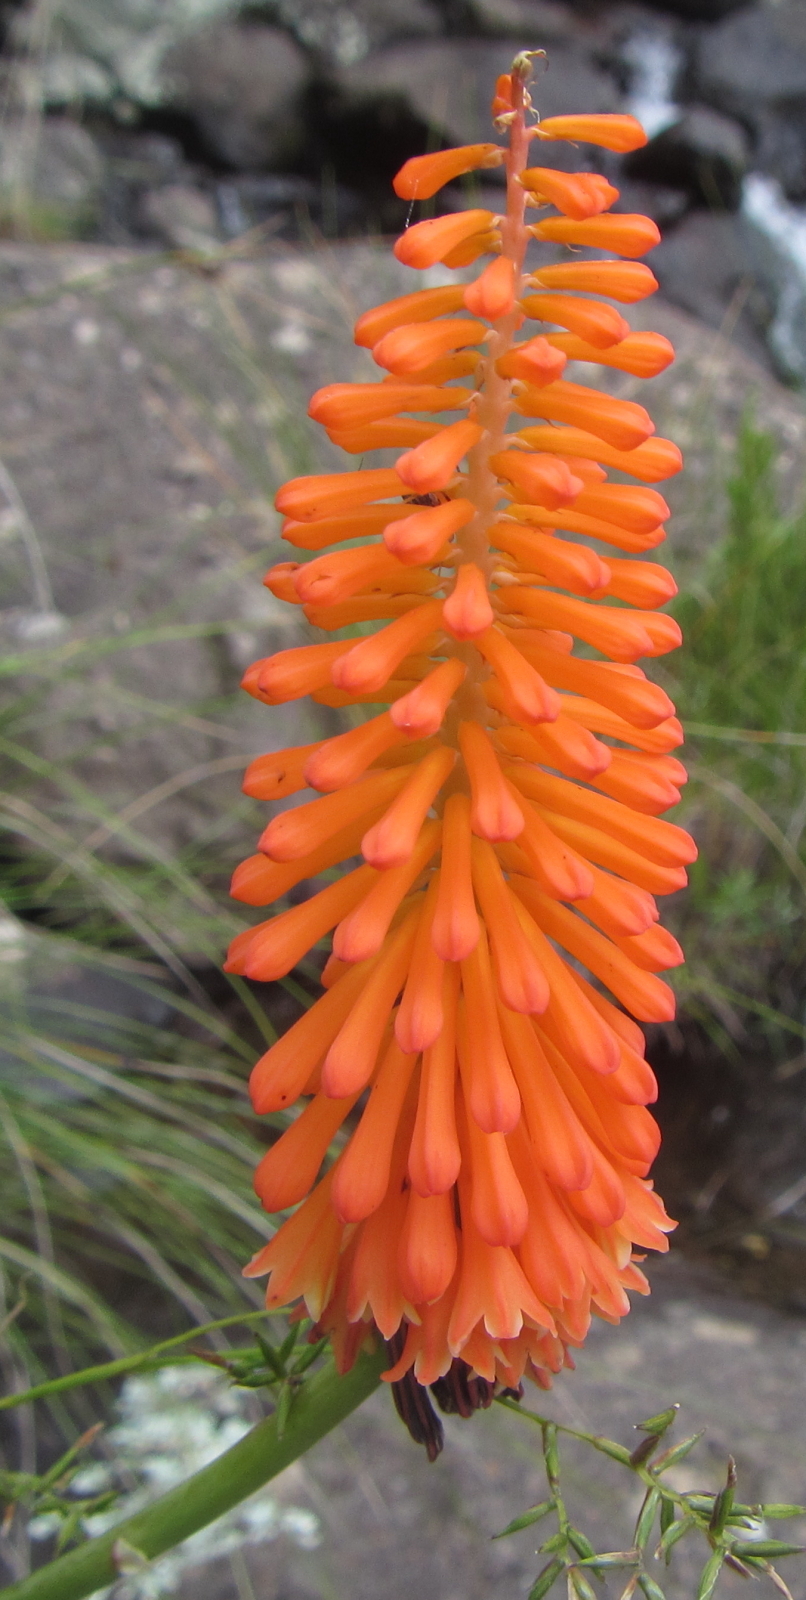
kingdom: Plantae
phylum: Tracheophyta
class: Liliopsida
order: Asparagales
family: Asphodelaceae
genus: Kniphofia
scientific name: Kniphofia evansii
